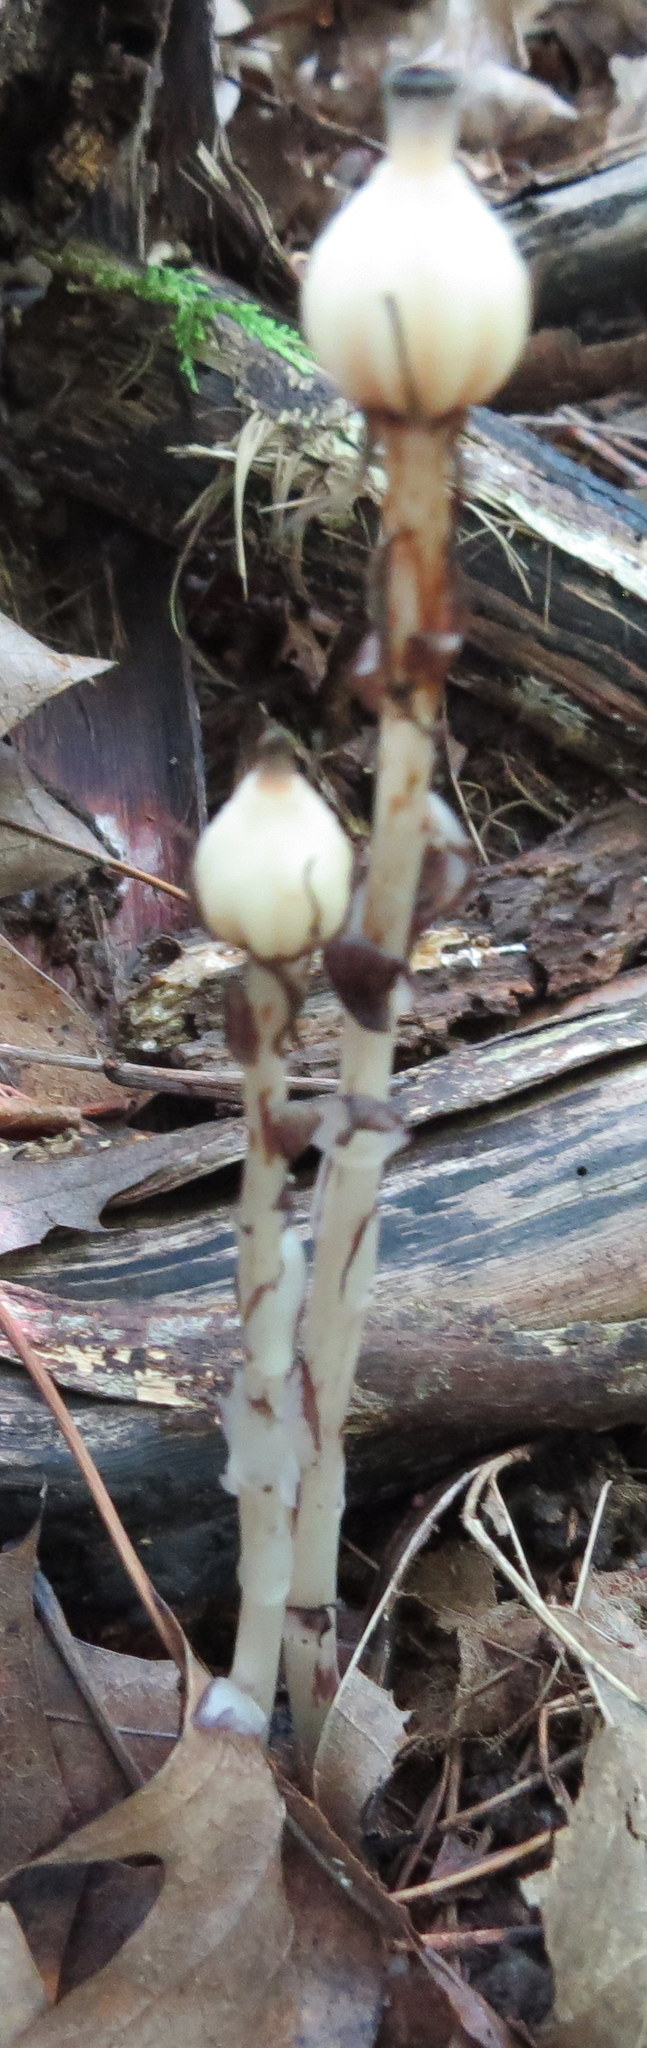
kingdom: Plantae
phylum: Tracheophyta
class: Magnoliopsida
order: Ericales
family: Ericaceae
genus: Monotropa
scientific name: Monotropa uniflora
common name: Convulsion root
